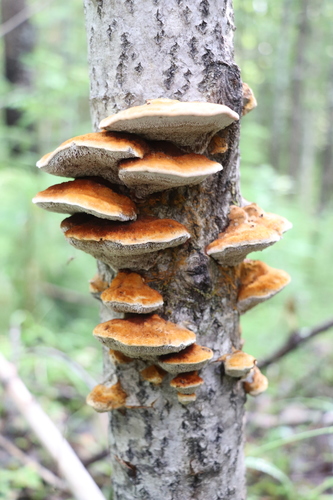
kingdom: Fungi
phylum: Basidiomycota
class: Agaricomycetes
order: Hymenochaetales
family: Hymenochaetaceae
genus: Inocutis
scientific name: Inocutis rheades
